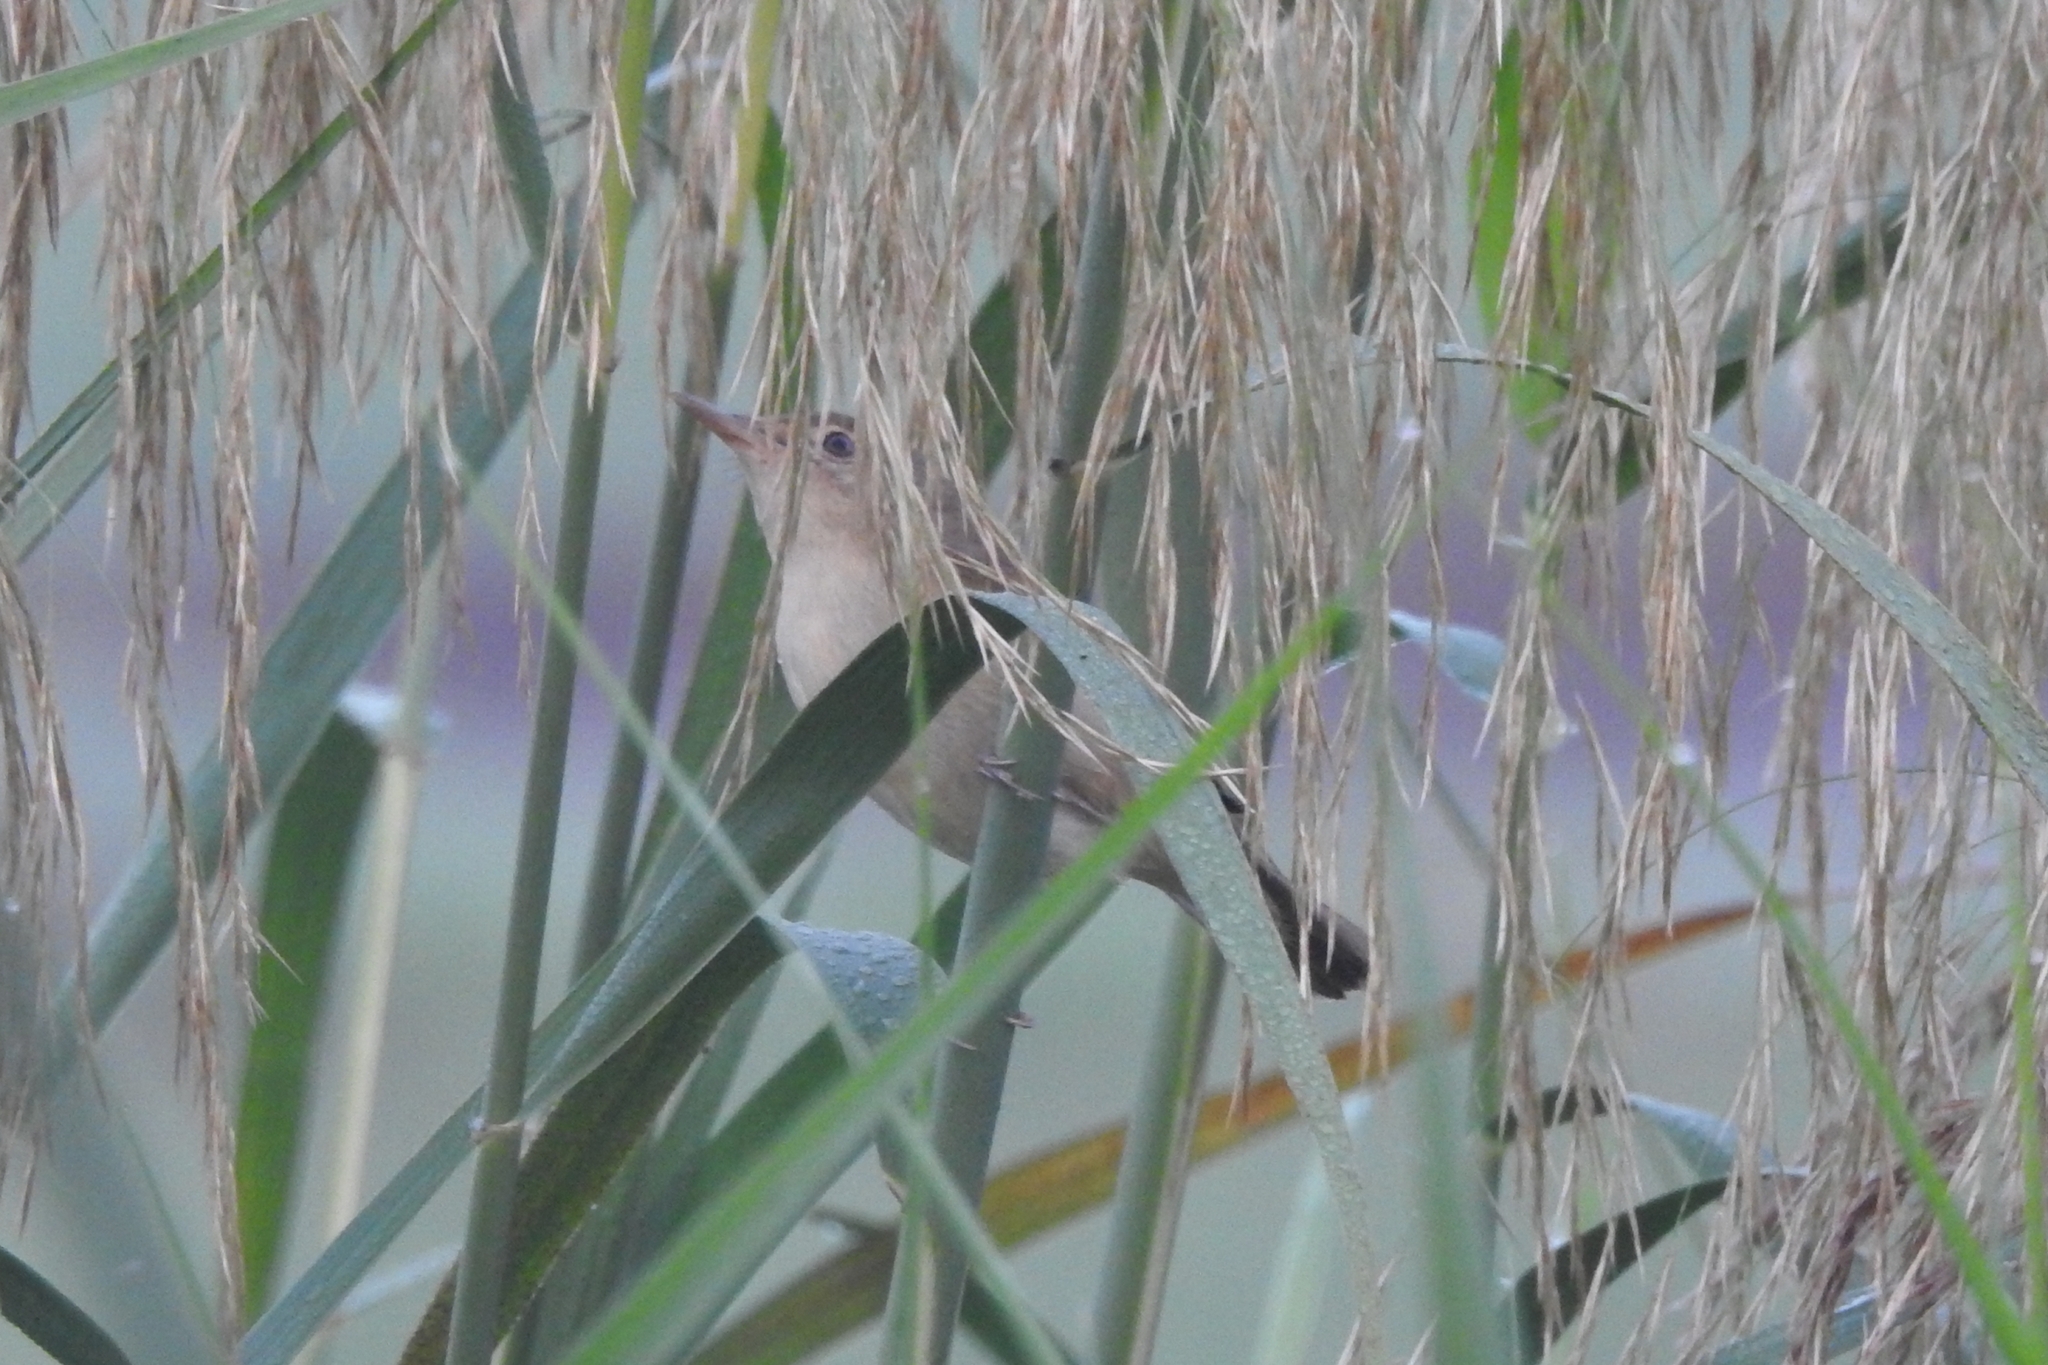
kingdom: Animalia
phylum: Chordata
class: Aves
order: Passeriformes
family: Acrocephalidae
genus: Acrocephalus
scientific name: Acrocephalus stentoreus
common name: Clamorous reed warbler
